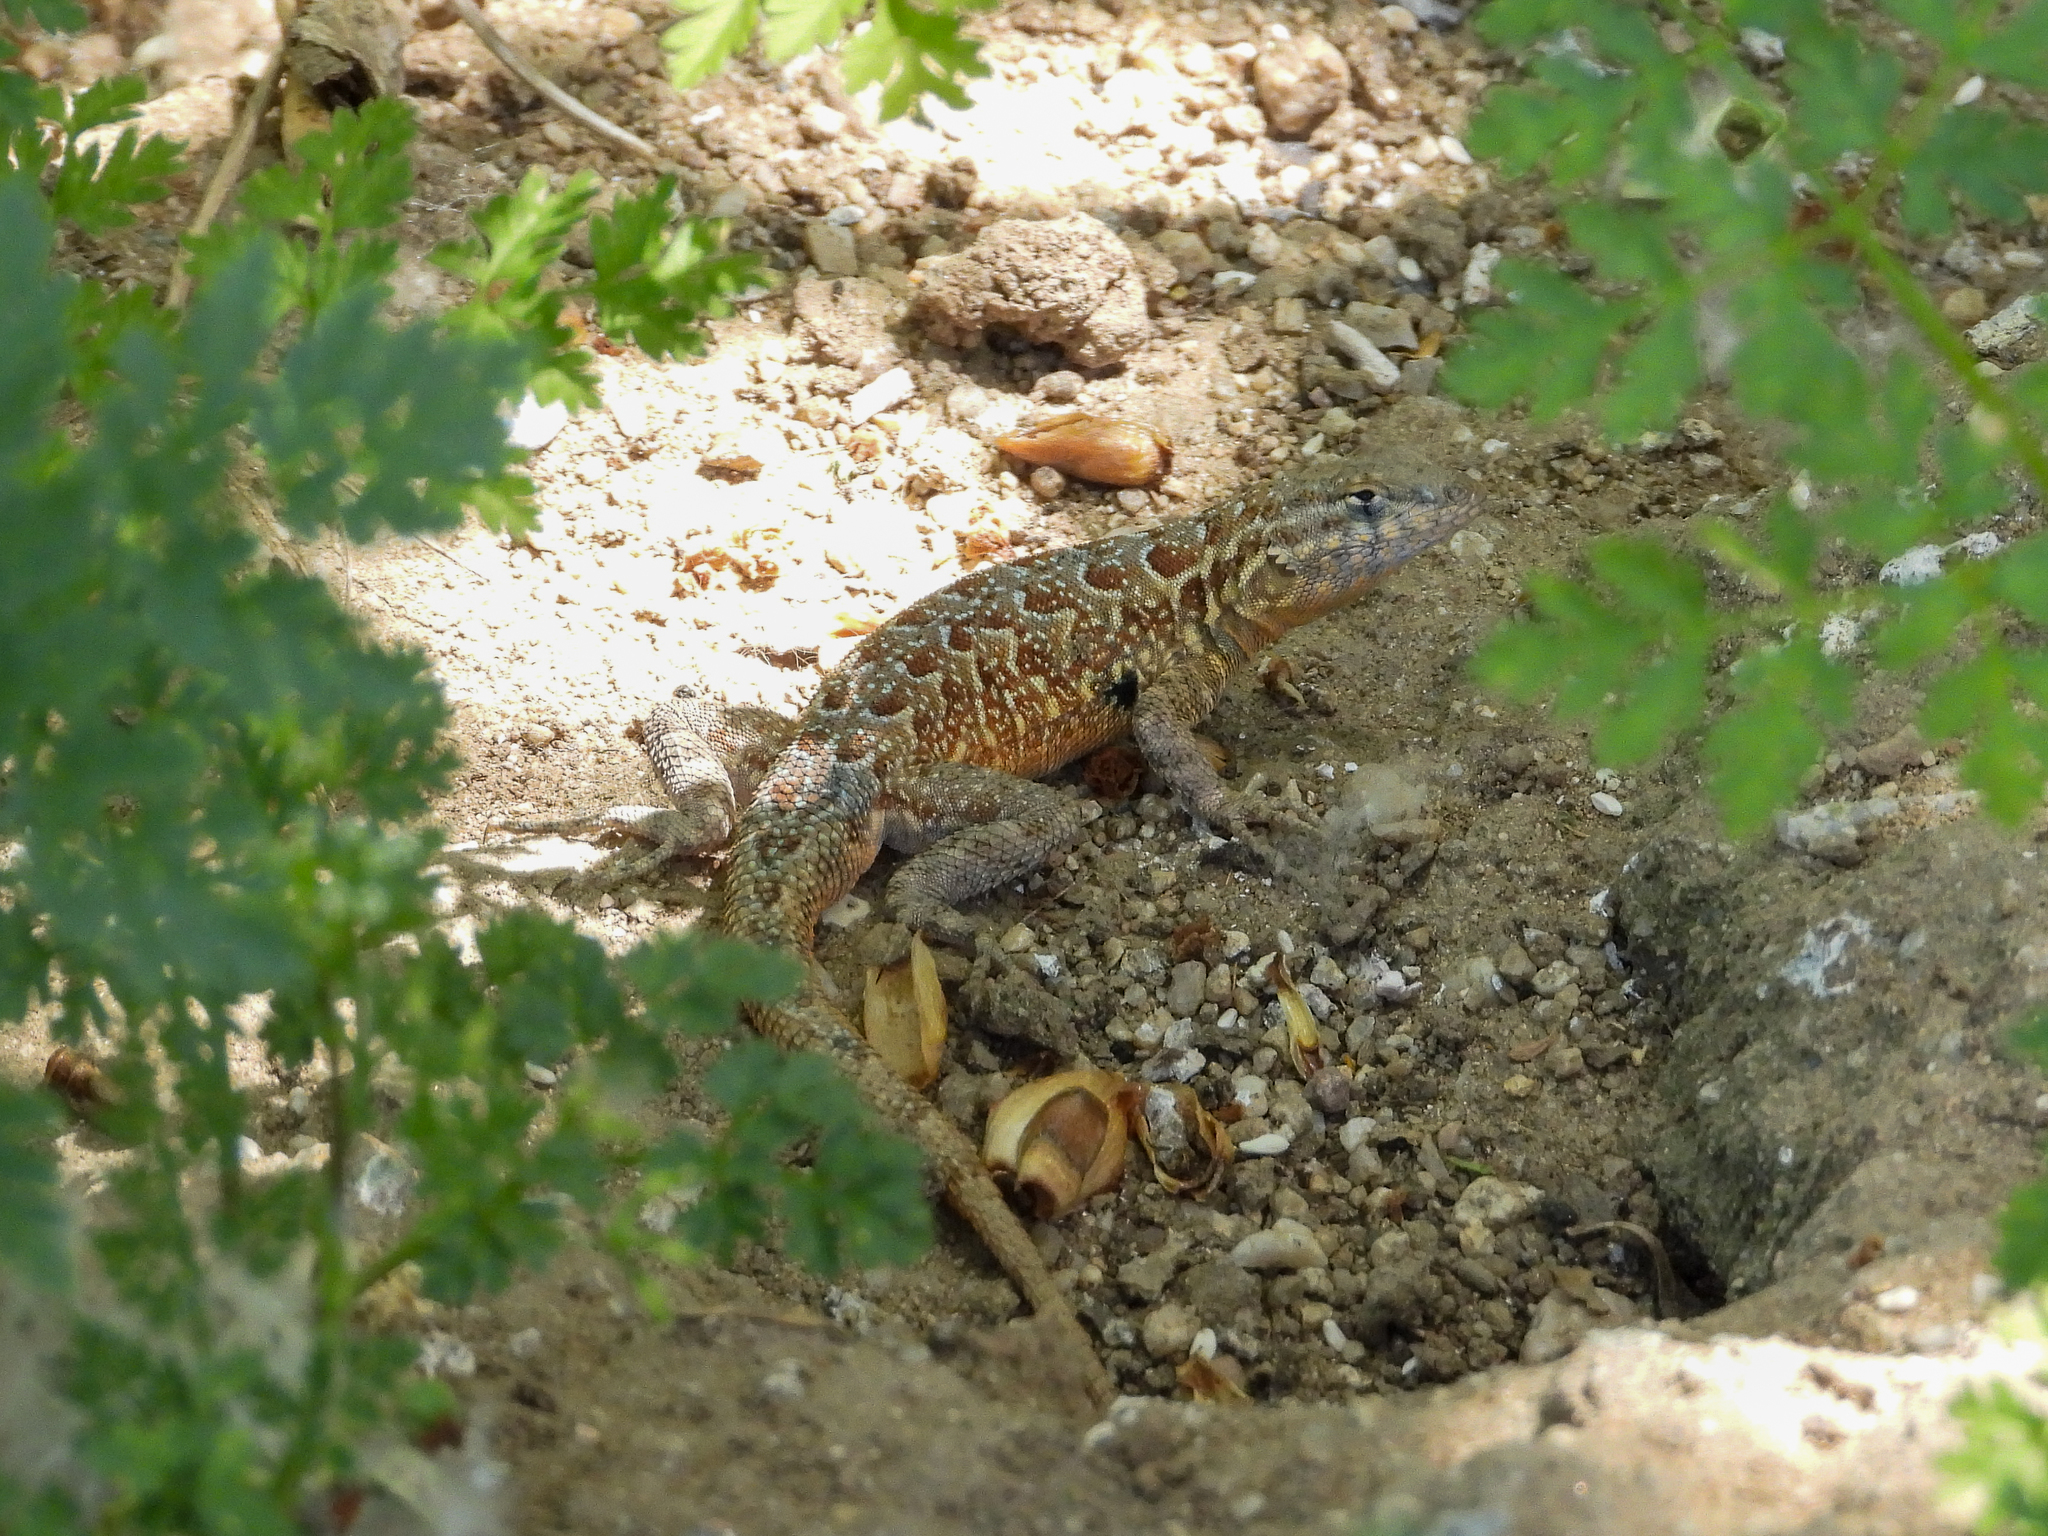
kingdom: Animalia
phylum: Chordata
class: Squamata
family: Phrynosomatidae
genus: Uta
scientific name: Uta stansburiana
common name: Side-blotched lizard
